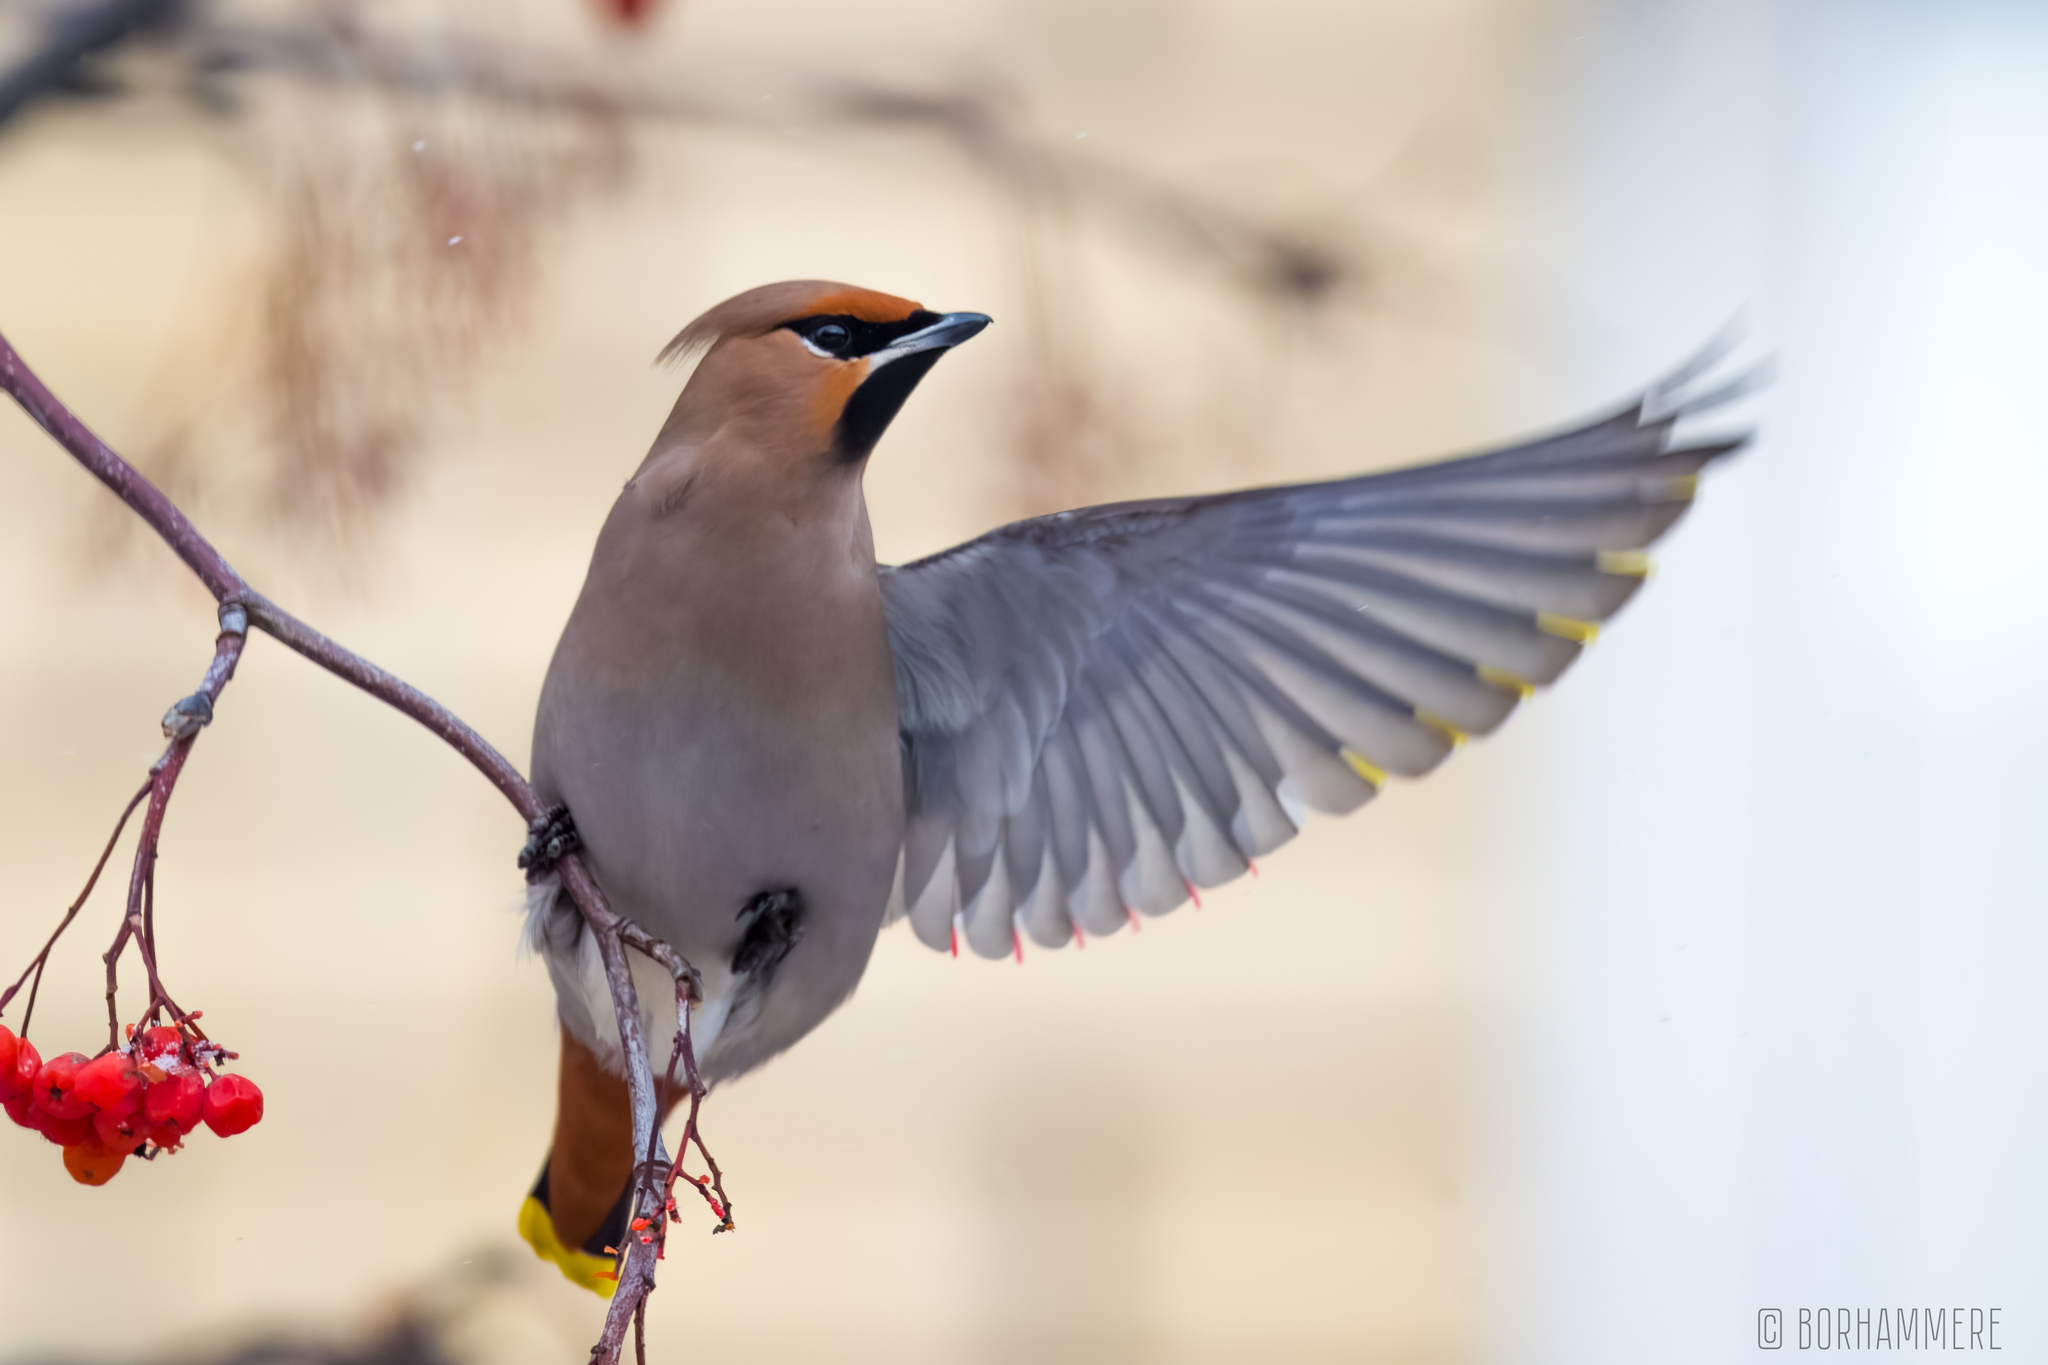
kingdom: Animalia
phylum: Chordata
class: Aves
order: Passeriformes
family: Bombycillidae
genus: Bombycilla
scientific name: Bombycilla garrulus
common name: Bohemian waxwing
